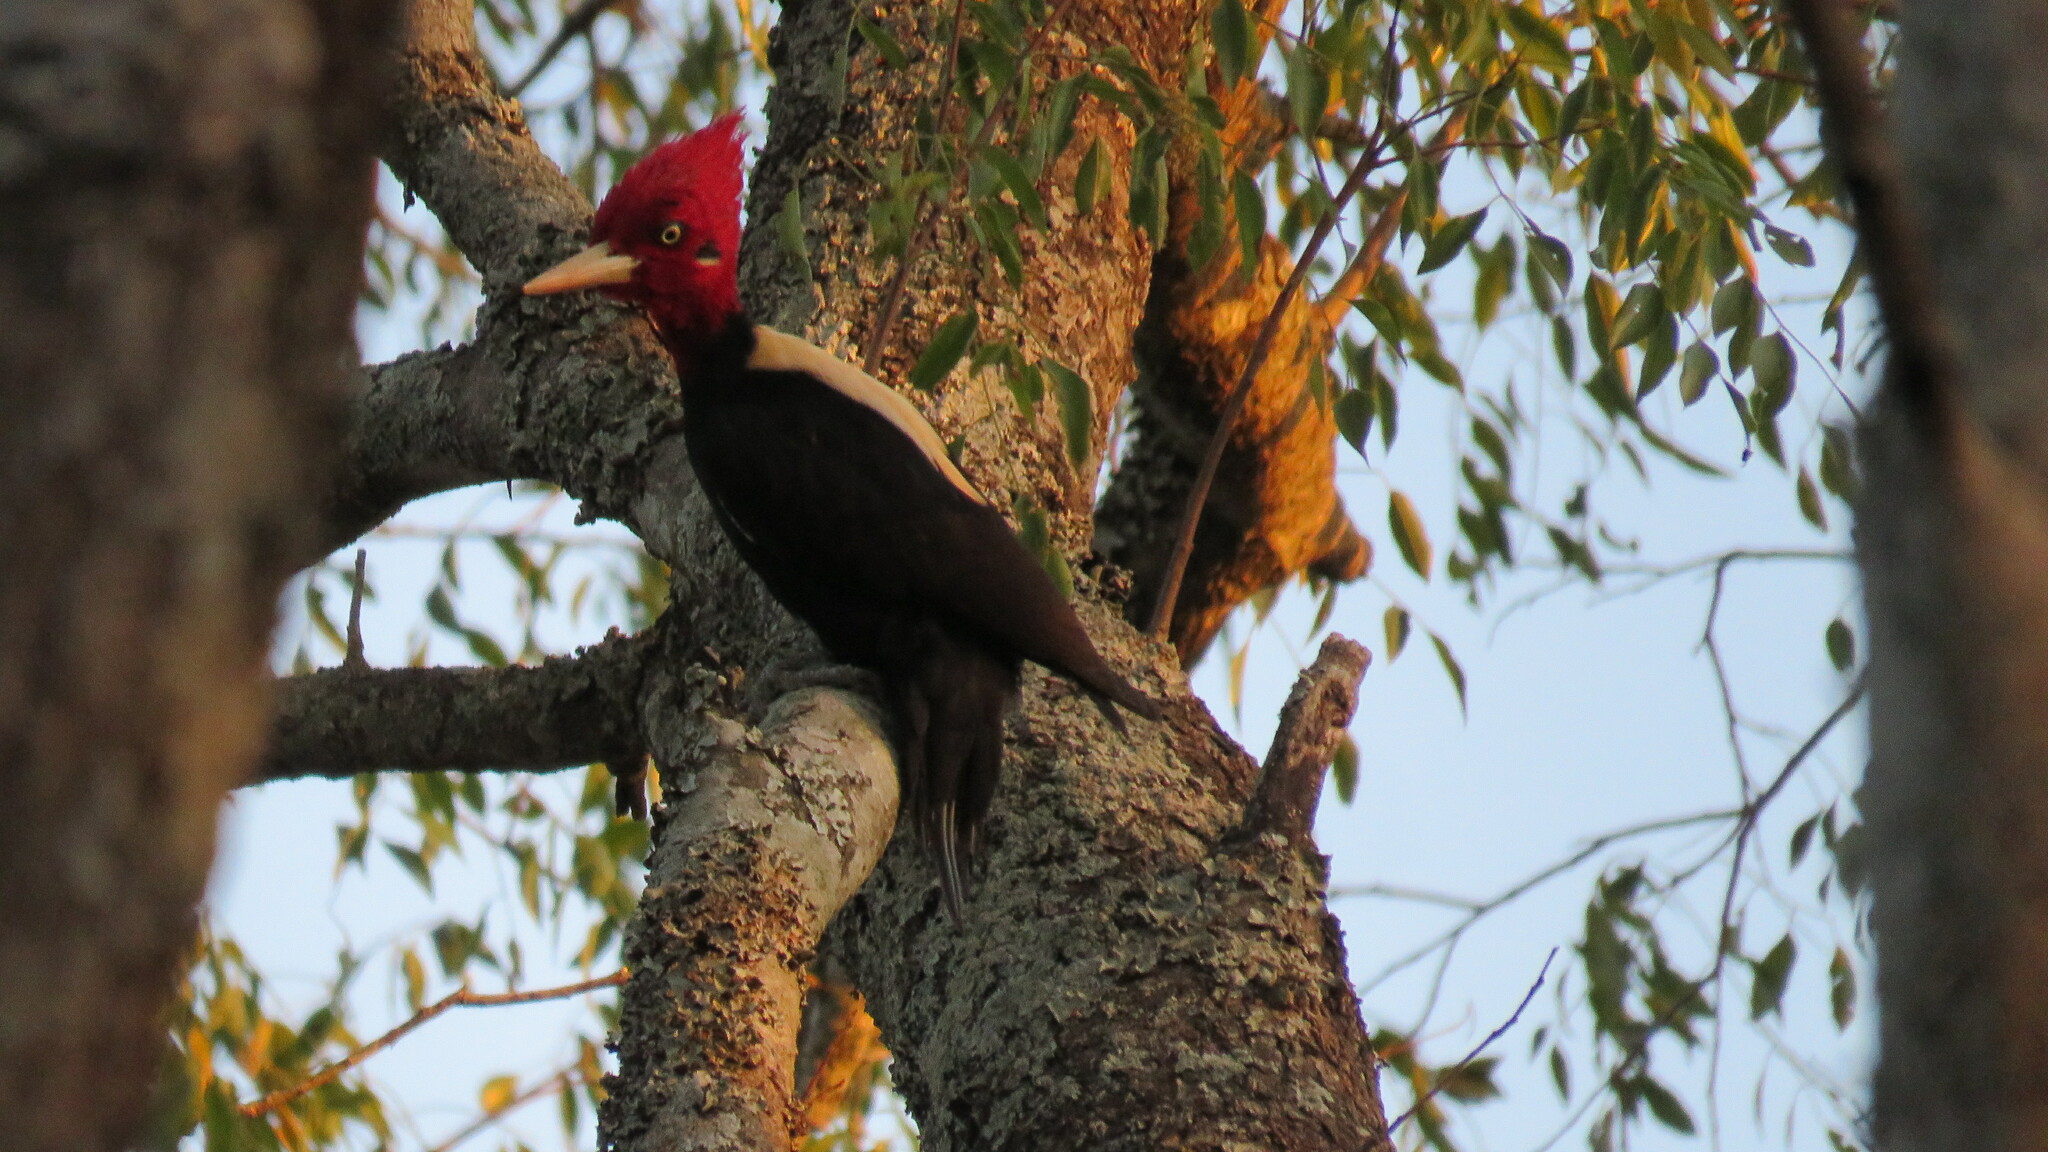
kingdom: Animalia
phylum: Chordata
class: Aves
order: Piciformes
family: Picidae
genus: Campephilus
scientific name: Campephilus leucopogon
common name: Cream-backed woodpecker
